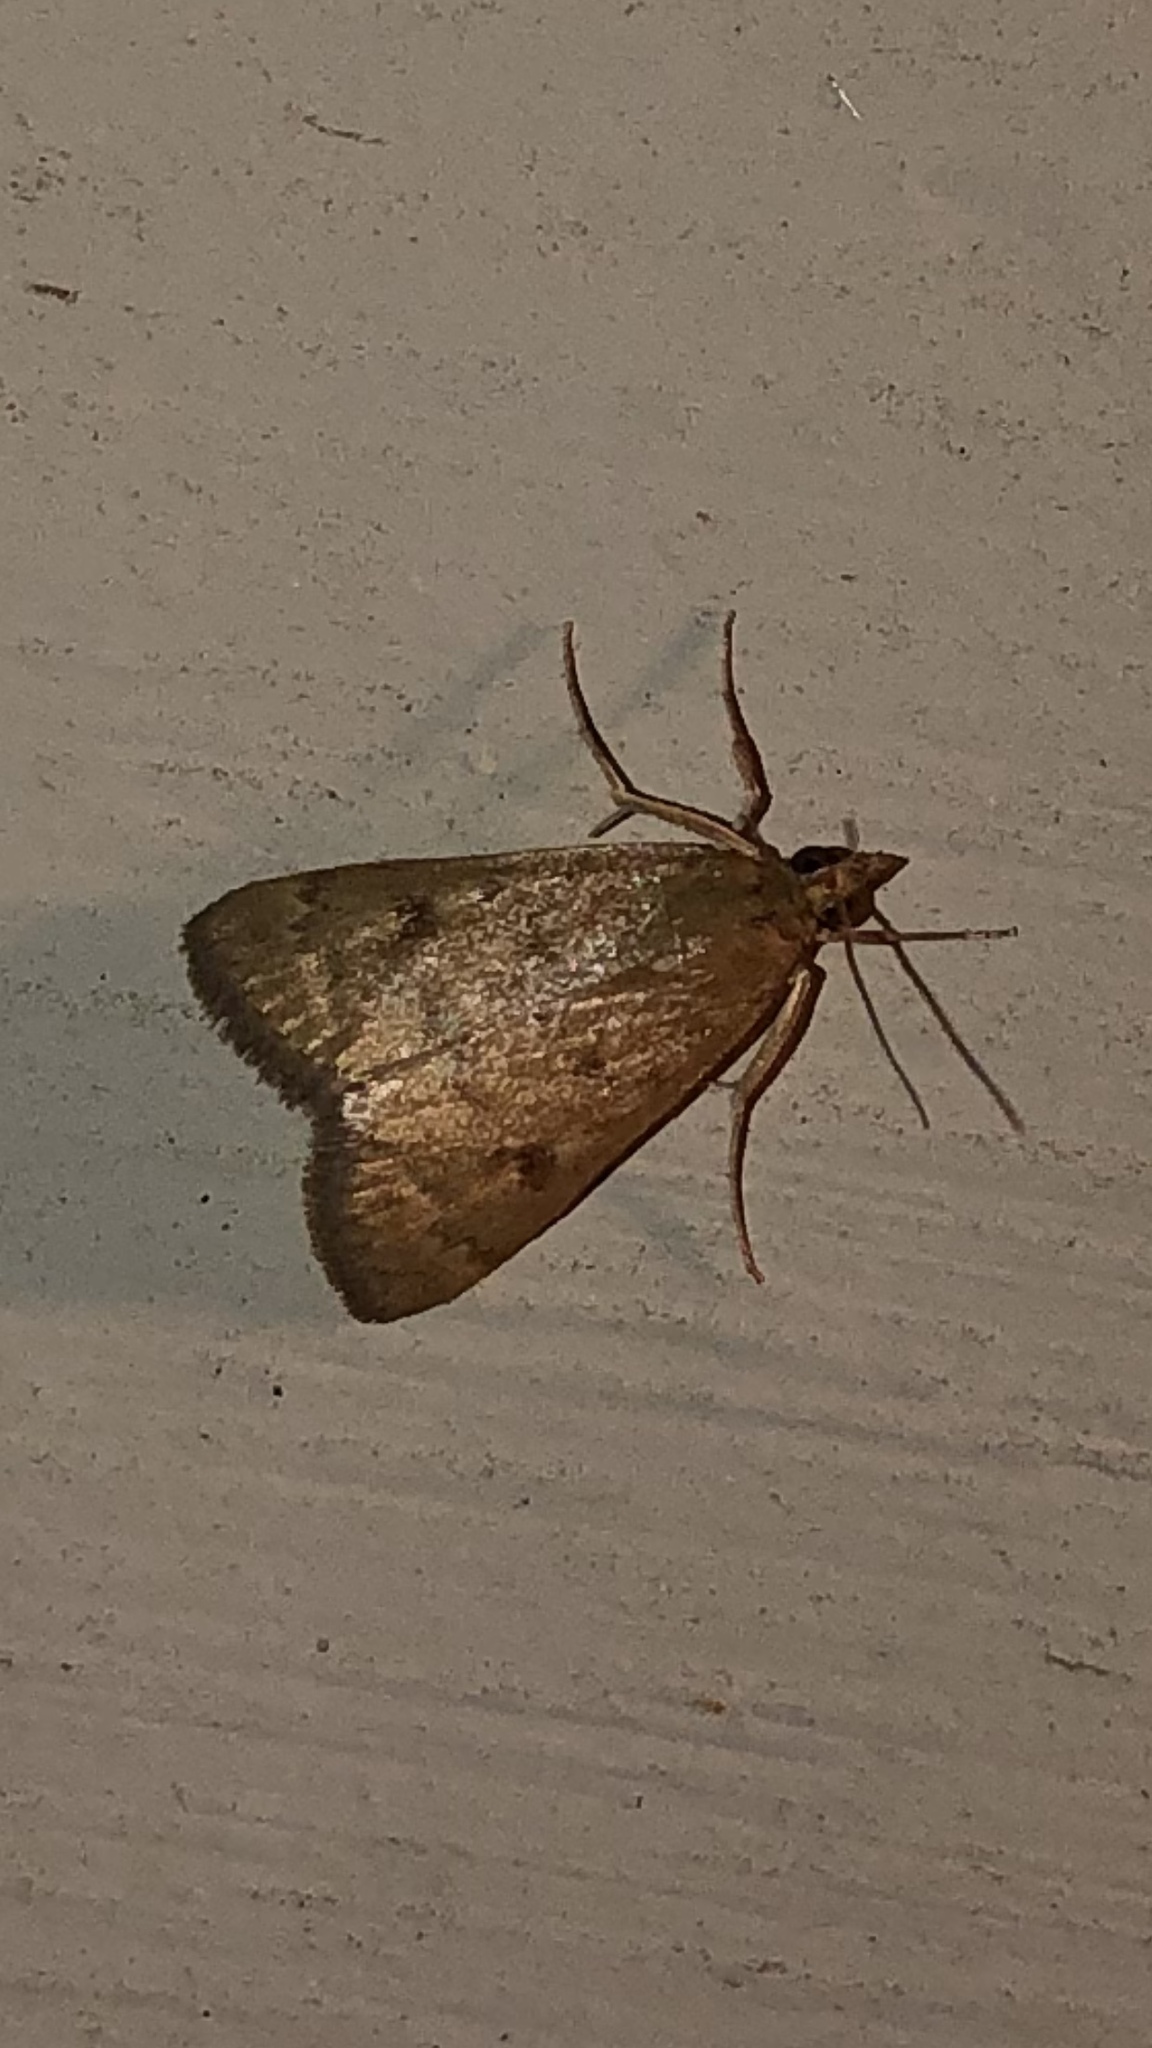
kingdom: Animalia
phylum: Arthropoda
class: Insecta
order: Lepidoptera
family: Crambidae
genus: Achyra
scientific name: Achyra rantalis
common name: Garden webworm
